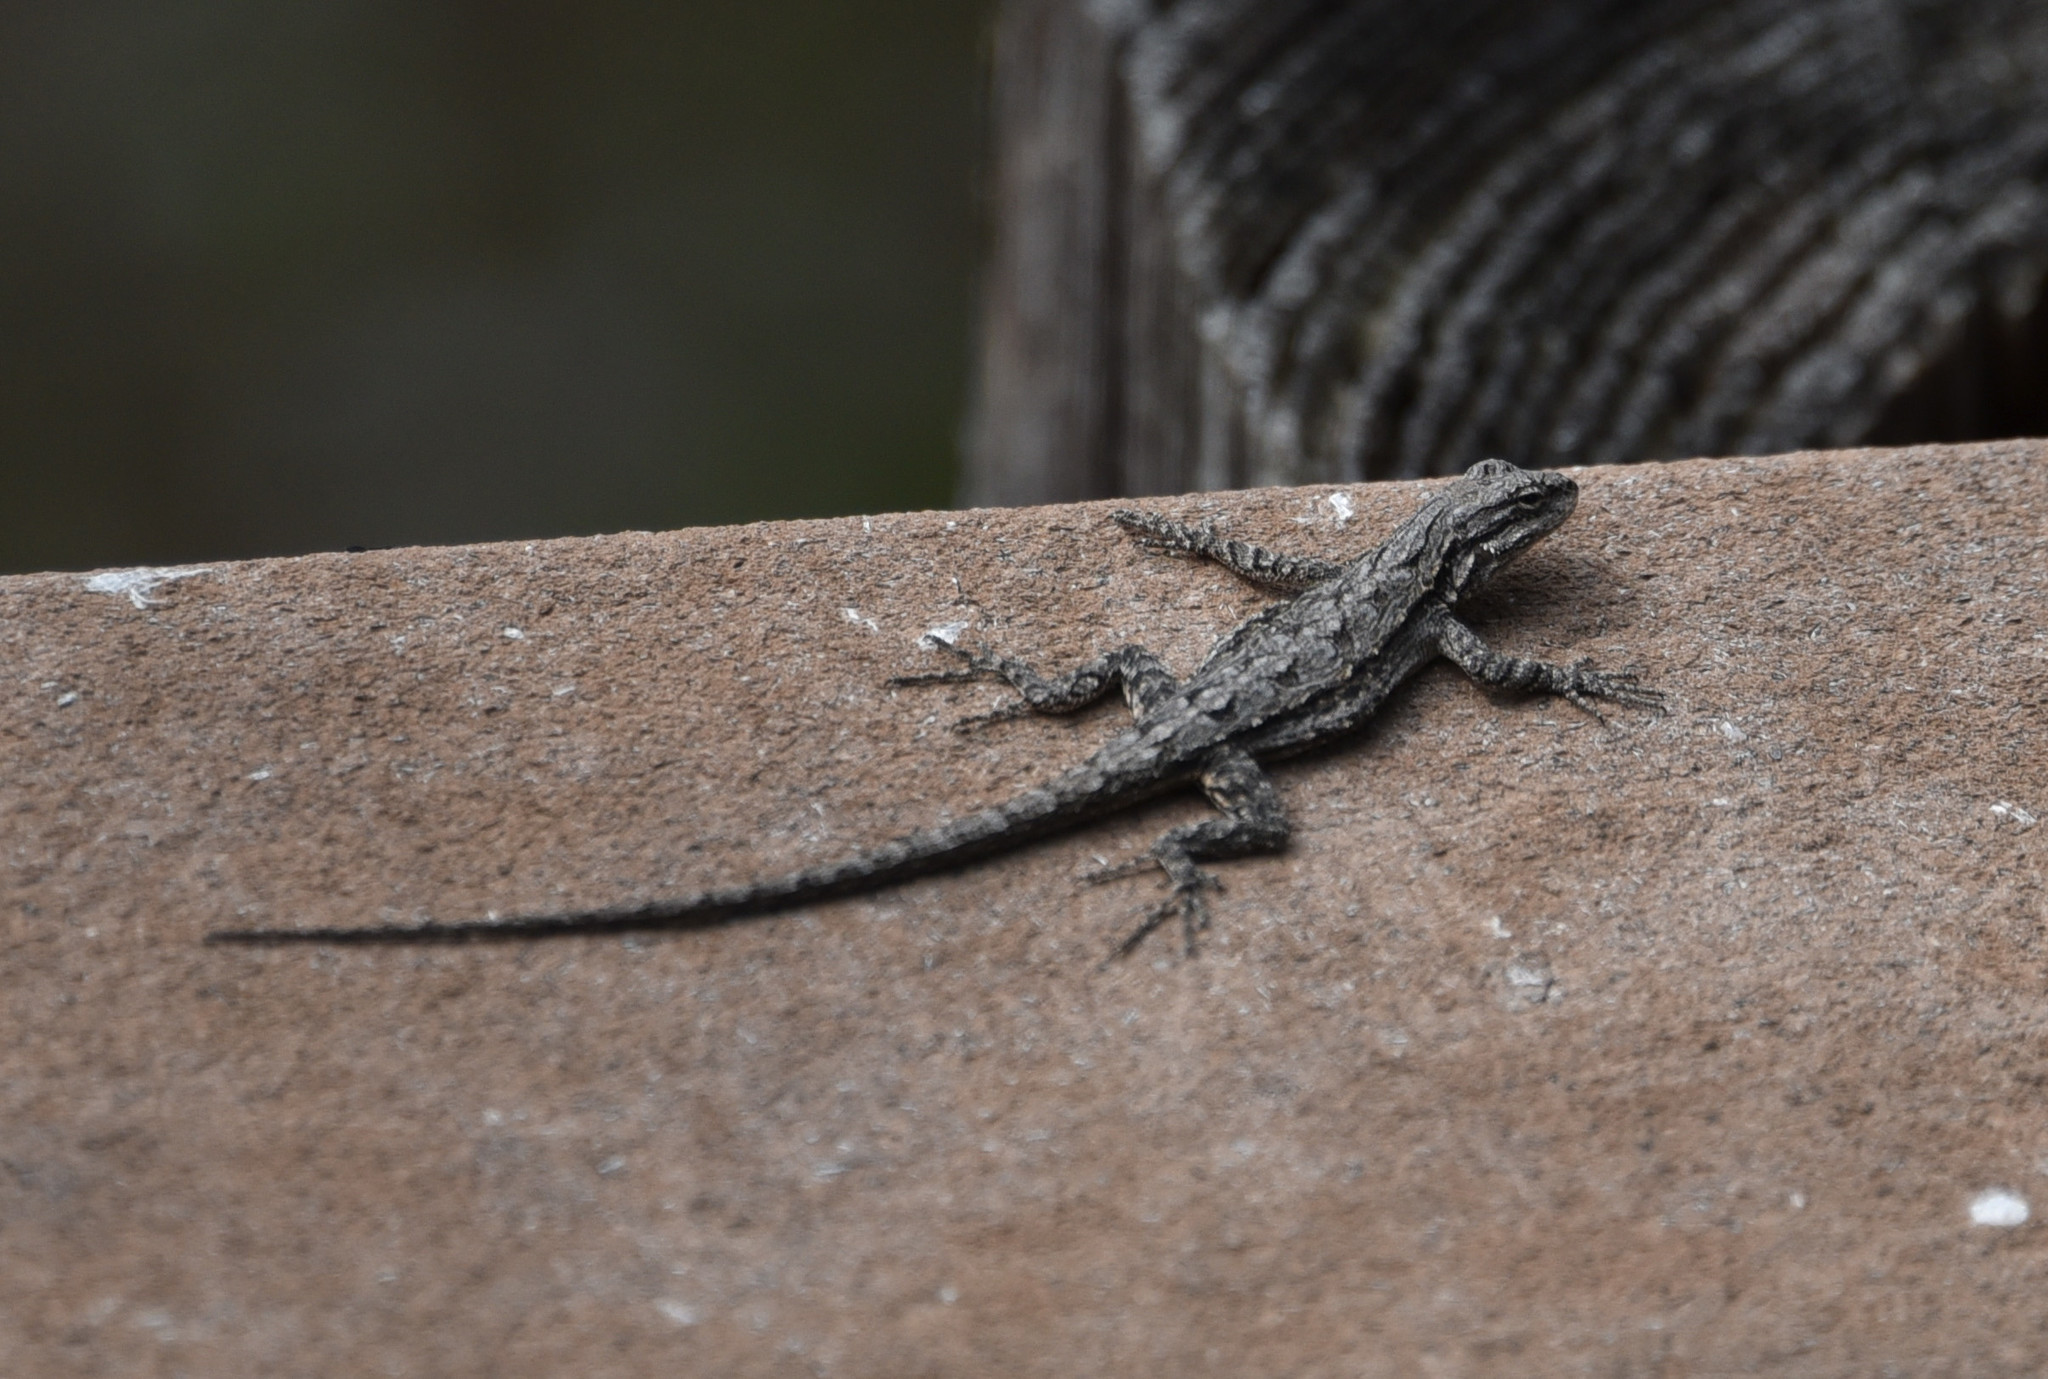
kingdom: Animalia
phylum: Chordata
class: Squamata
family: Phrynosomatidae
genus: Urosaurus
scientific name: Urosaurus ornatus
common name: Ornate tree lizard
